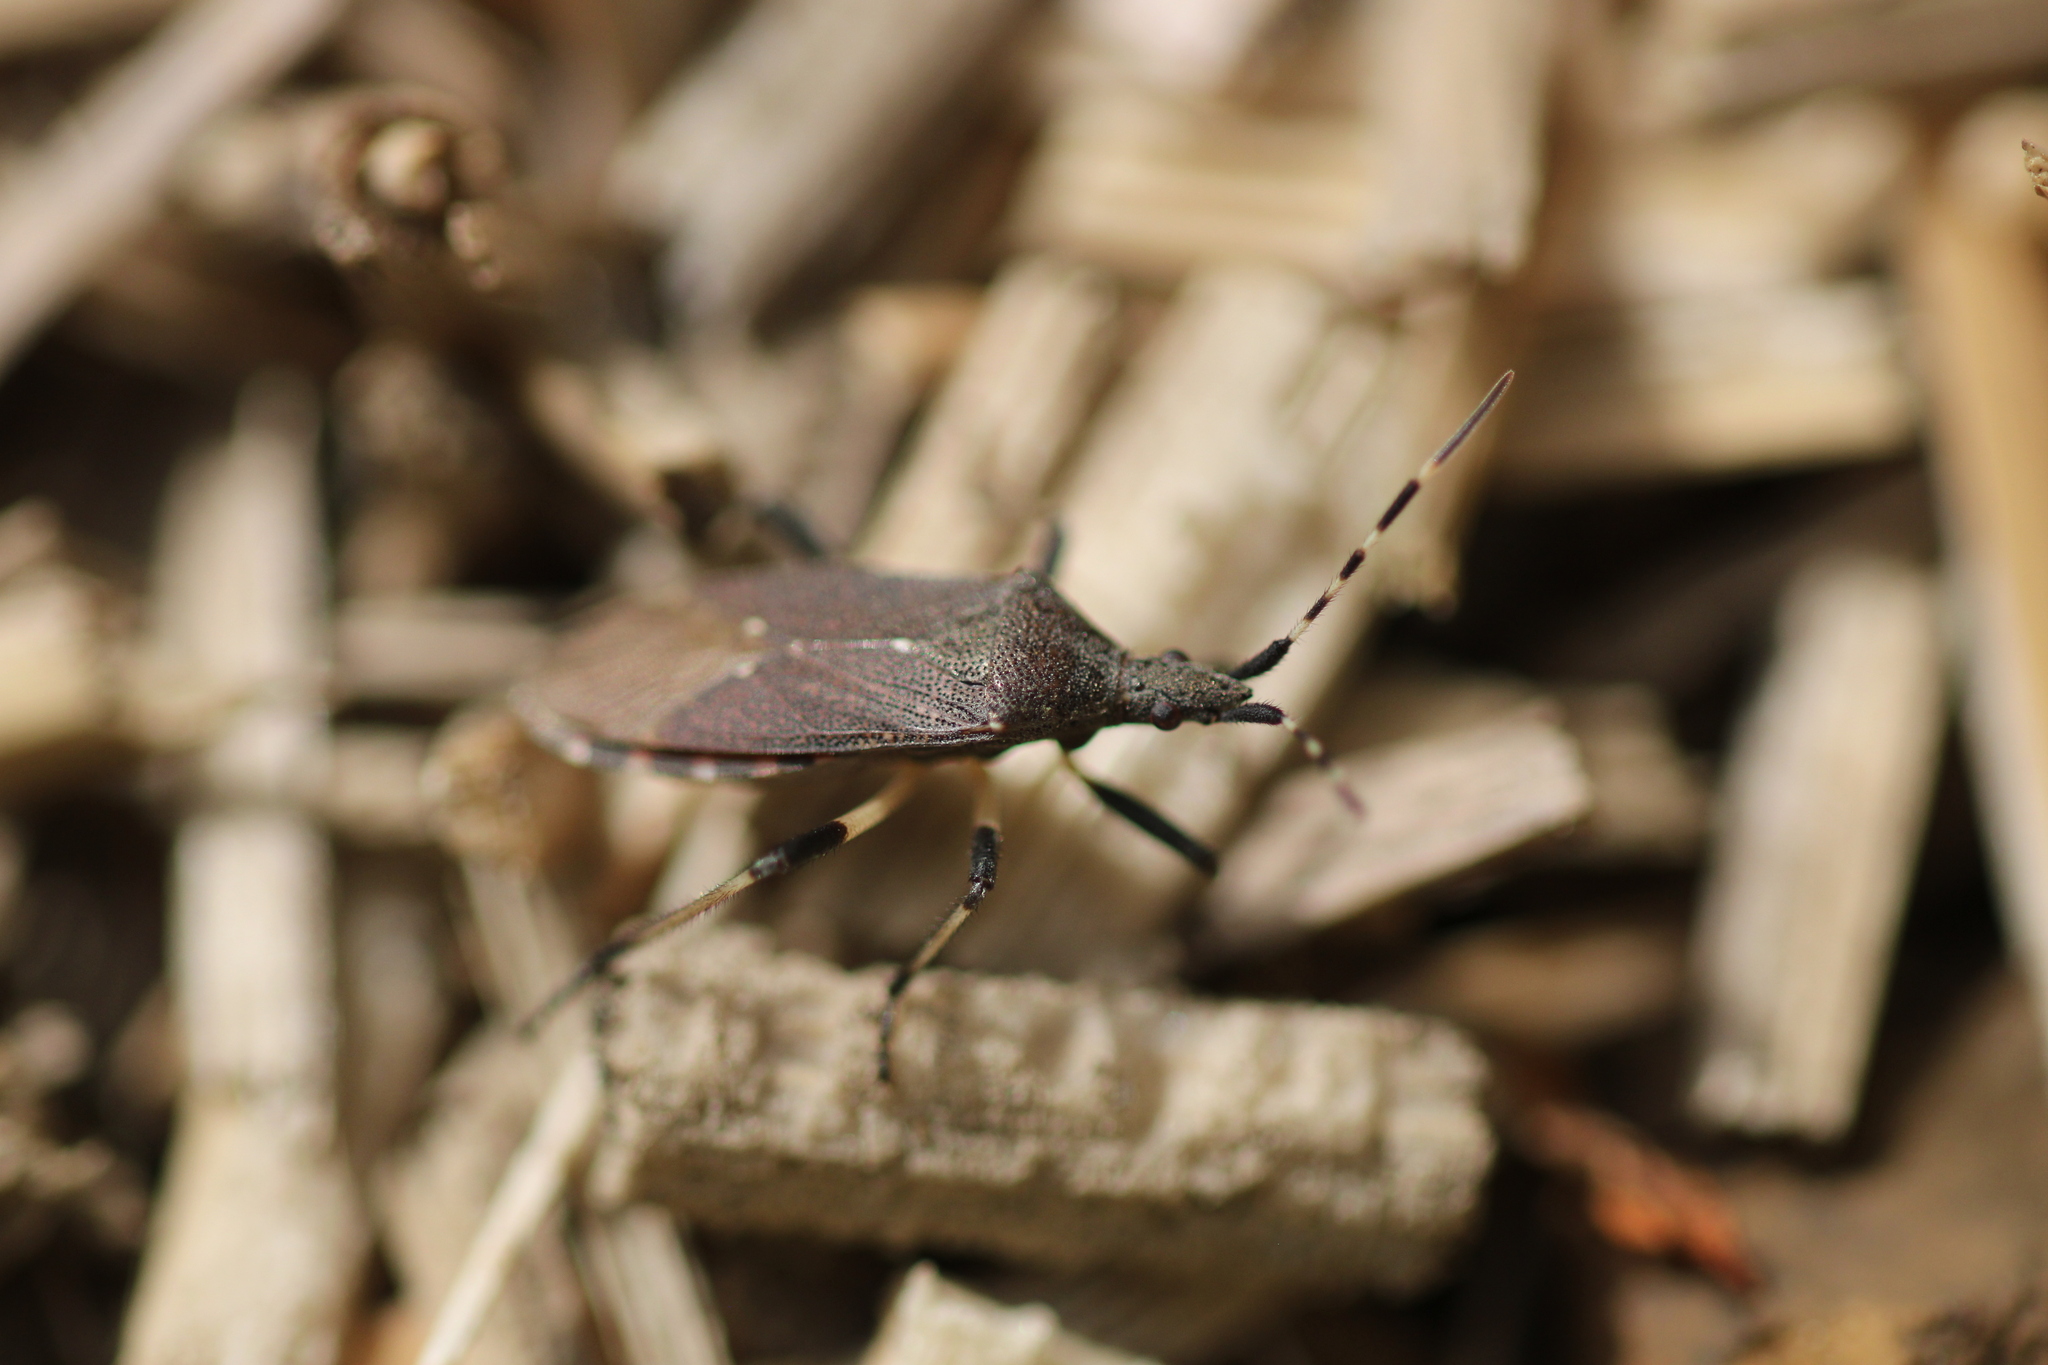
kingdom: Animalia
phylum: Arthropoda
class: Insecta
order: Hemiptera
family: Stenocephalidae
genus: Dicranocephalus
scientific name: Dicranocephalus agilis
